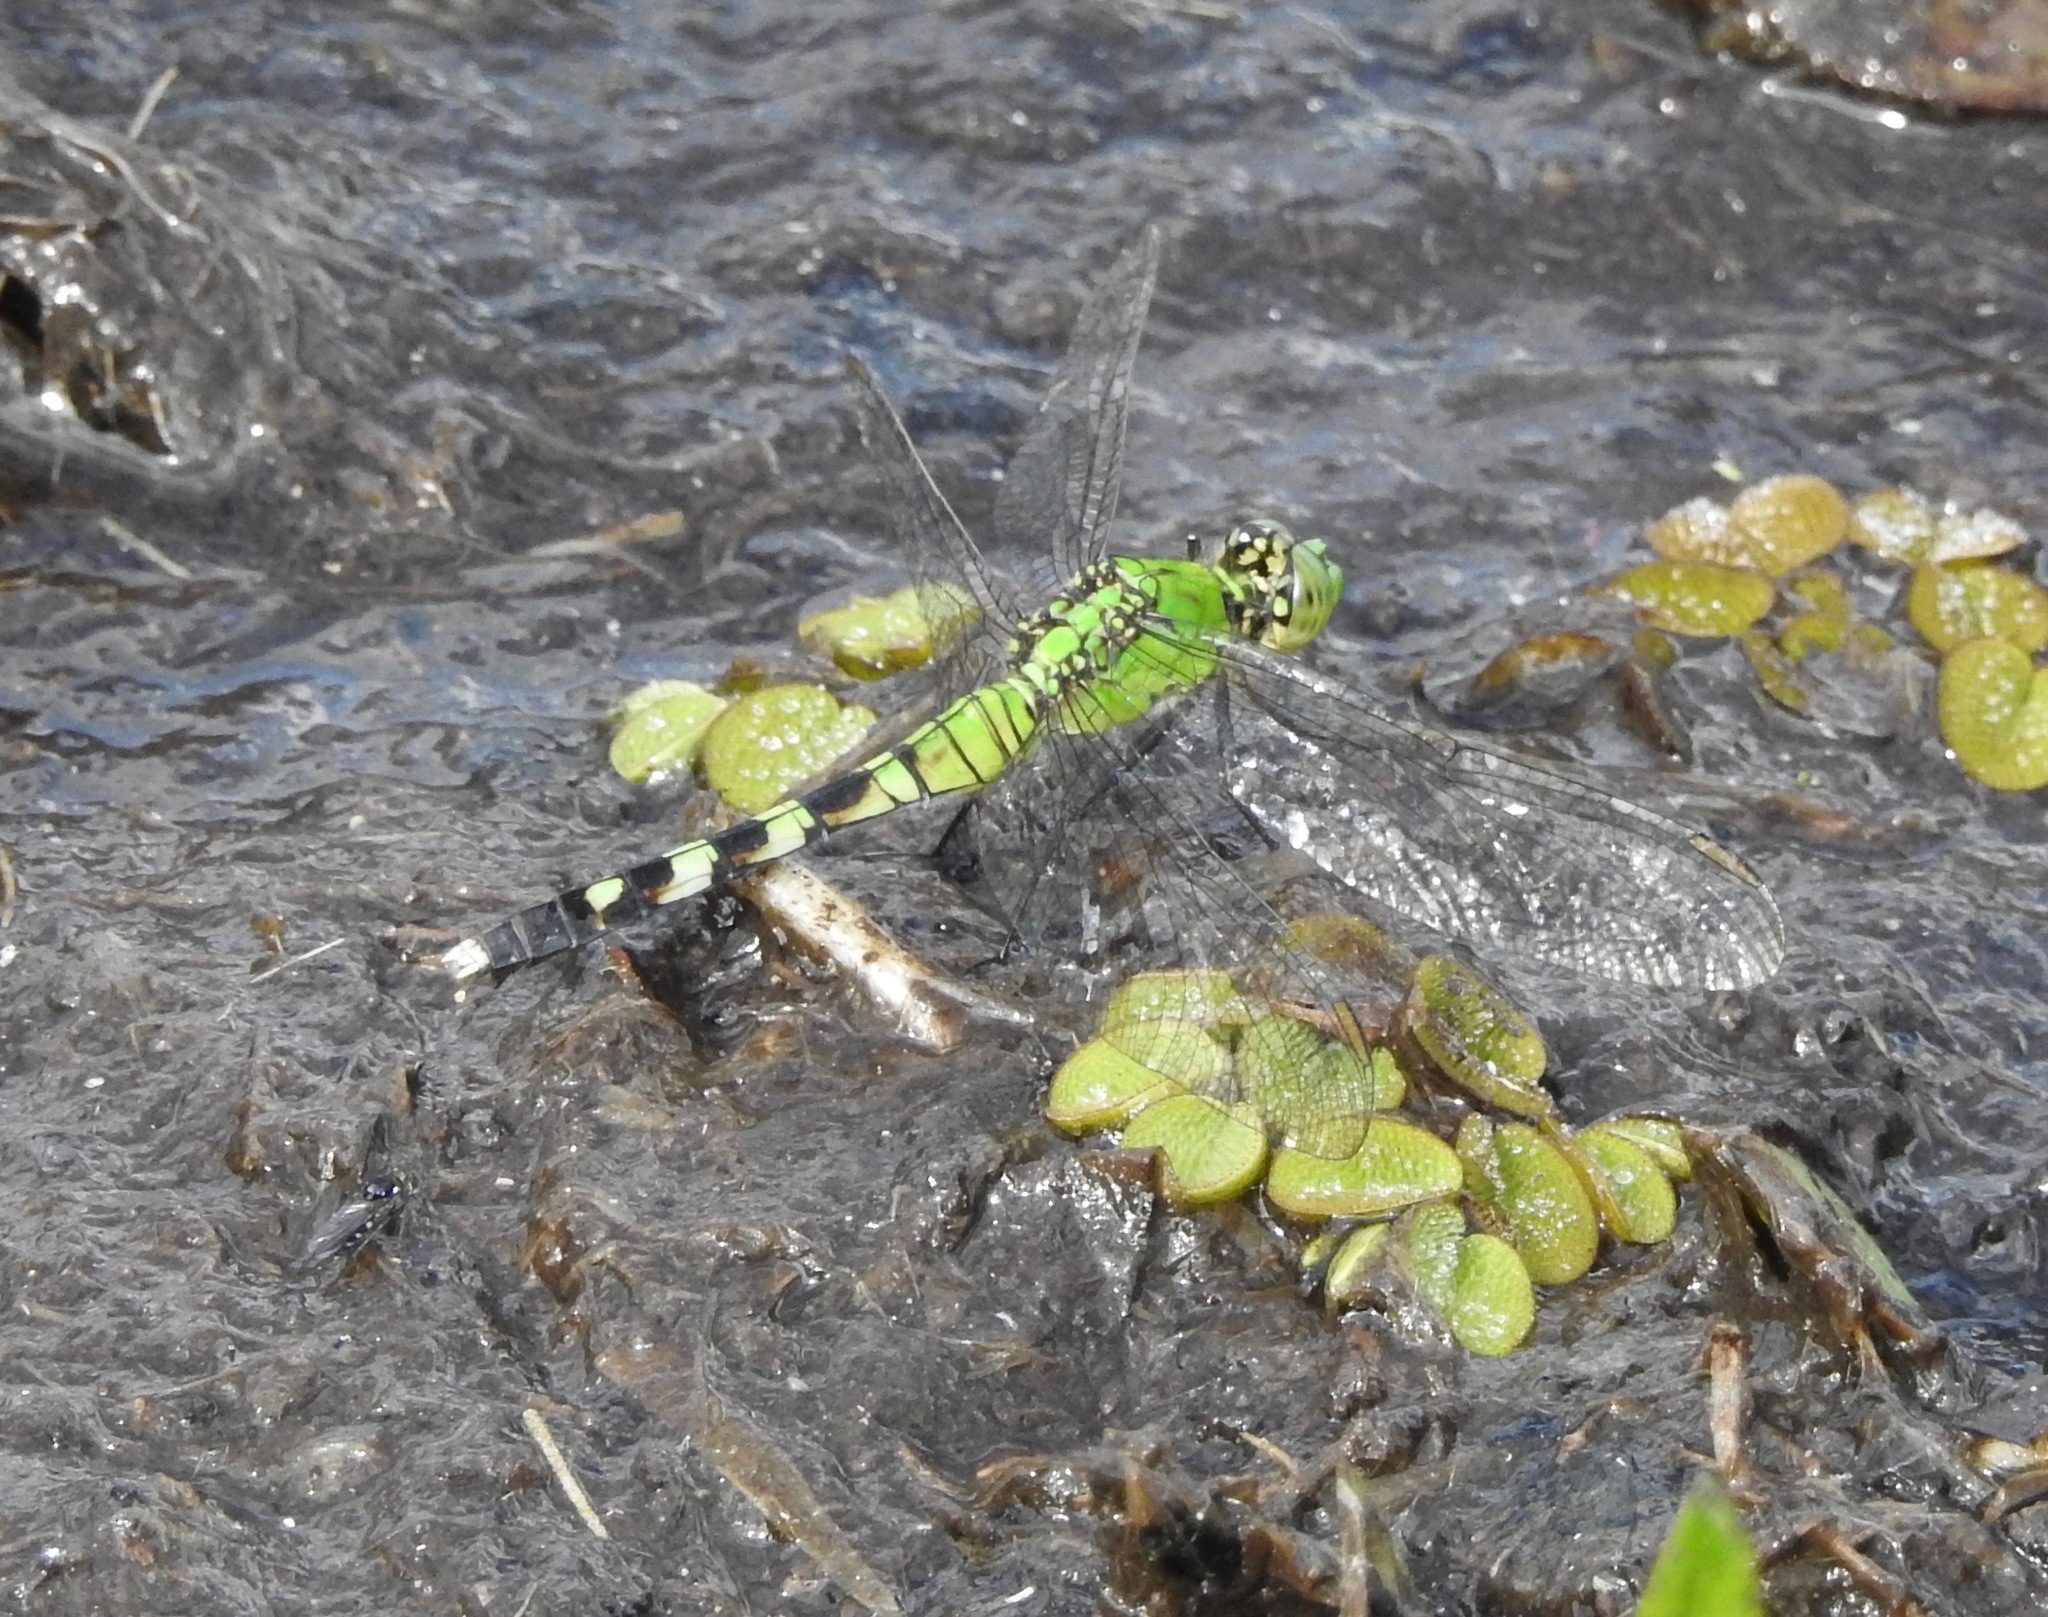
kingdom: Animalia
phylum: Arthropoda
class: Insecta
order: Odonata
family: Libellulidae
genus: Erythemis
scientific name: Erythemis simplicicollis
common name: Eastern pondhawk
